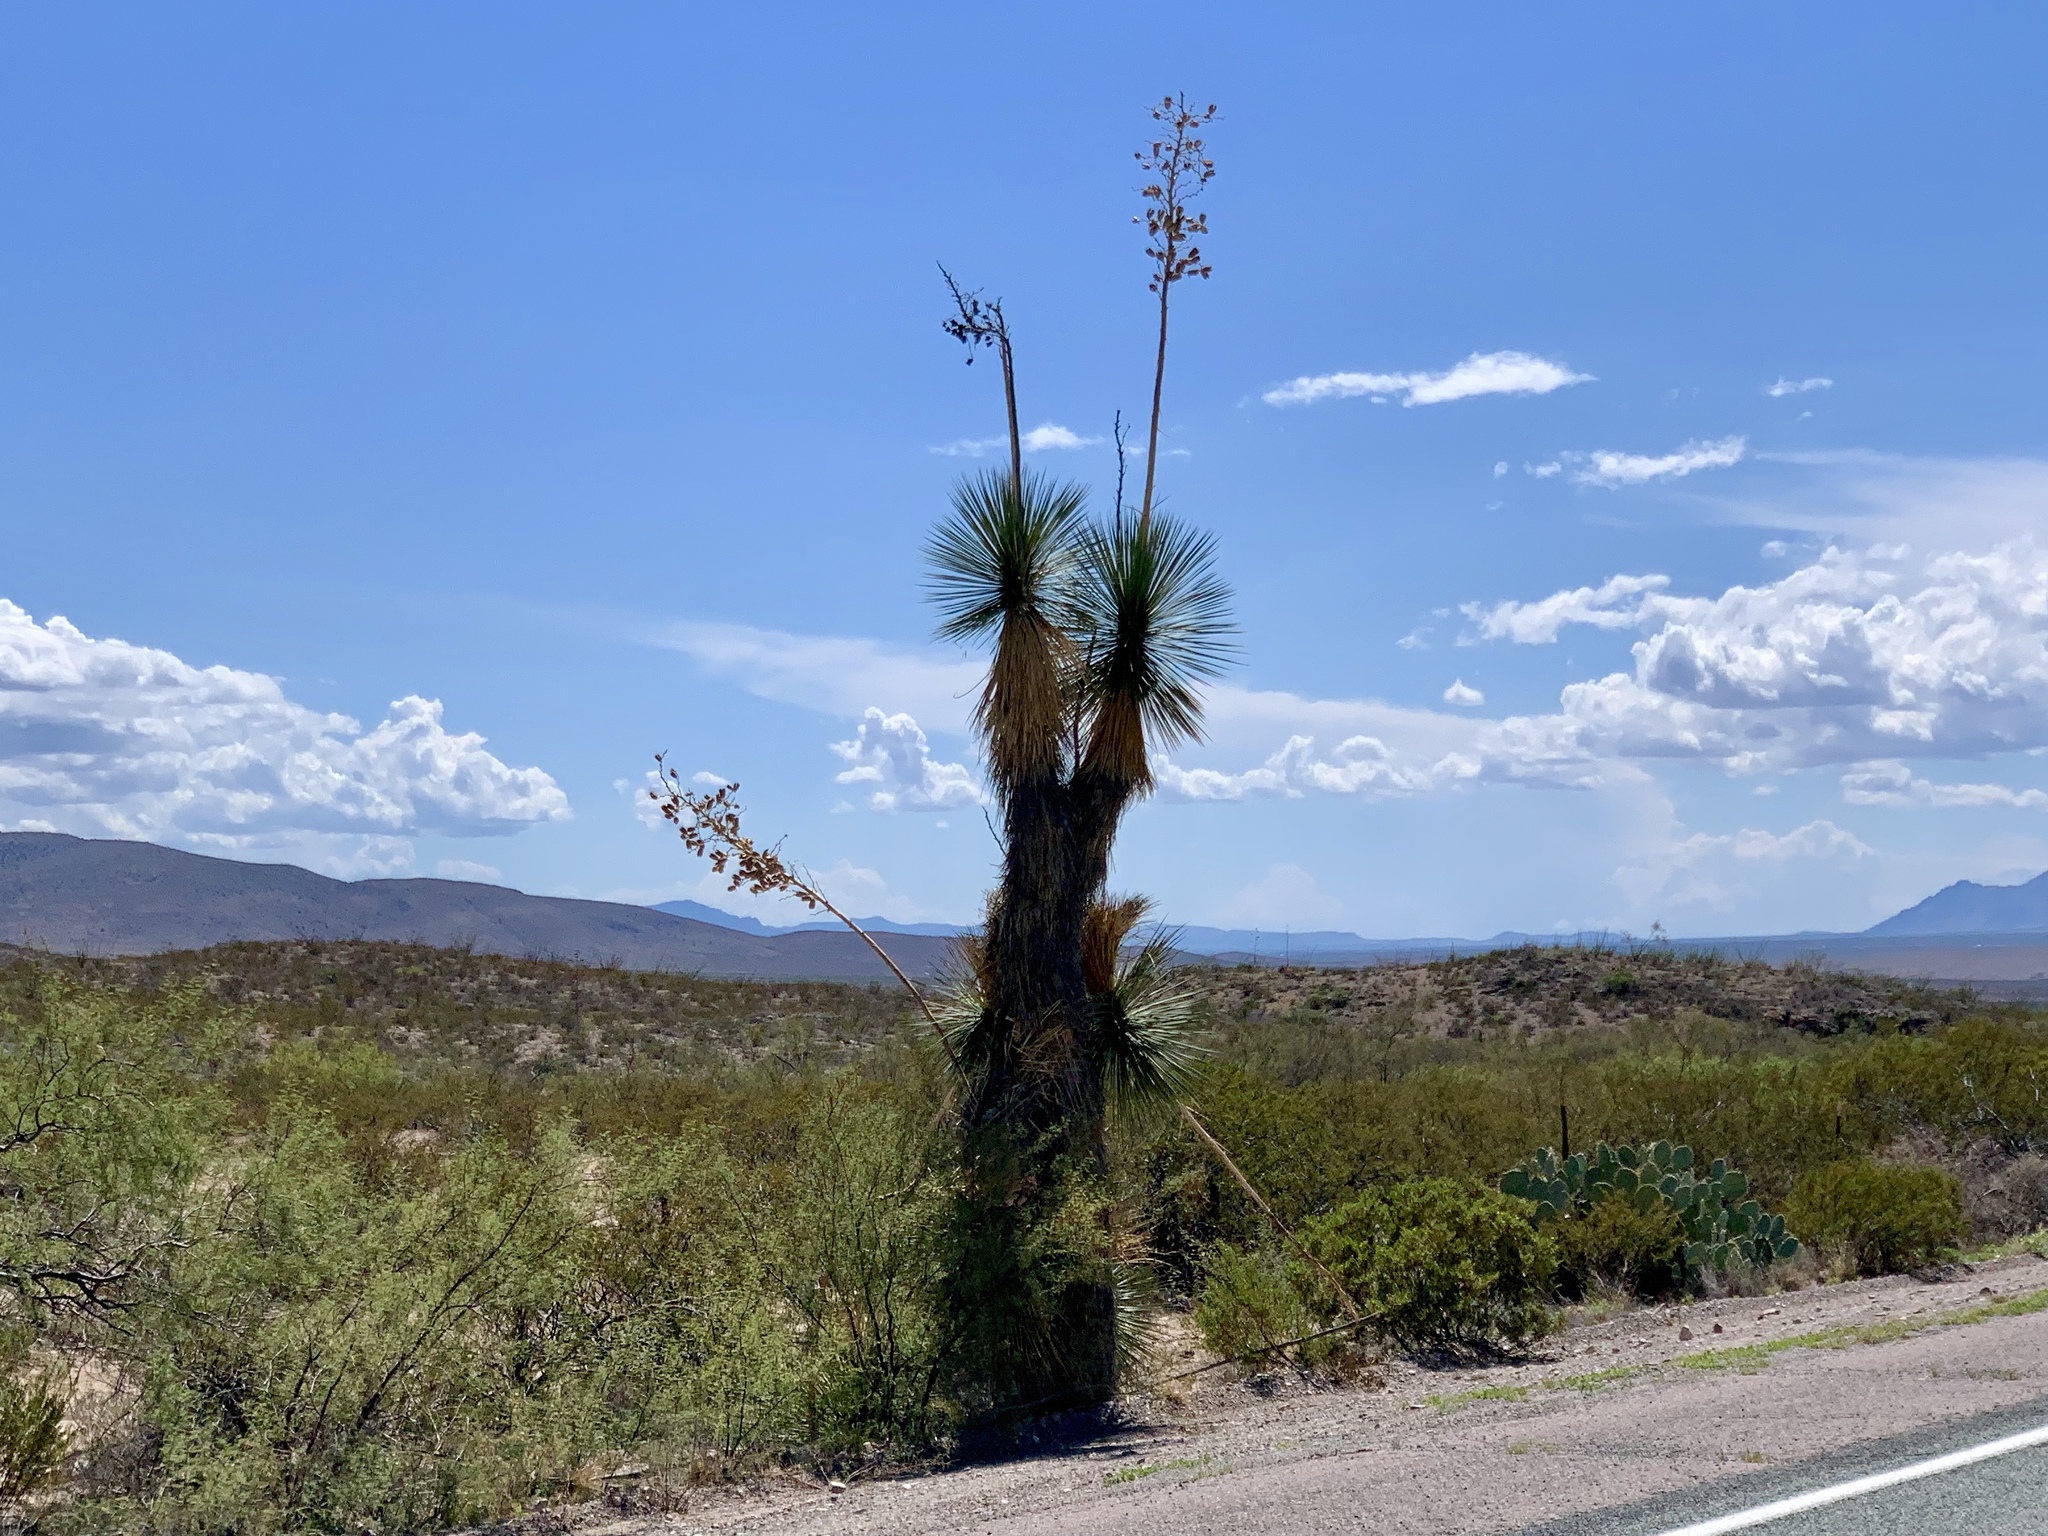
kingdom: Plantae
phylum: Tracheophyta
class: Liliopsida
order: Asparagales
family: Asparagaceae
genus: Yucca
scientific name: Yucca elata
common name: Palmella
